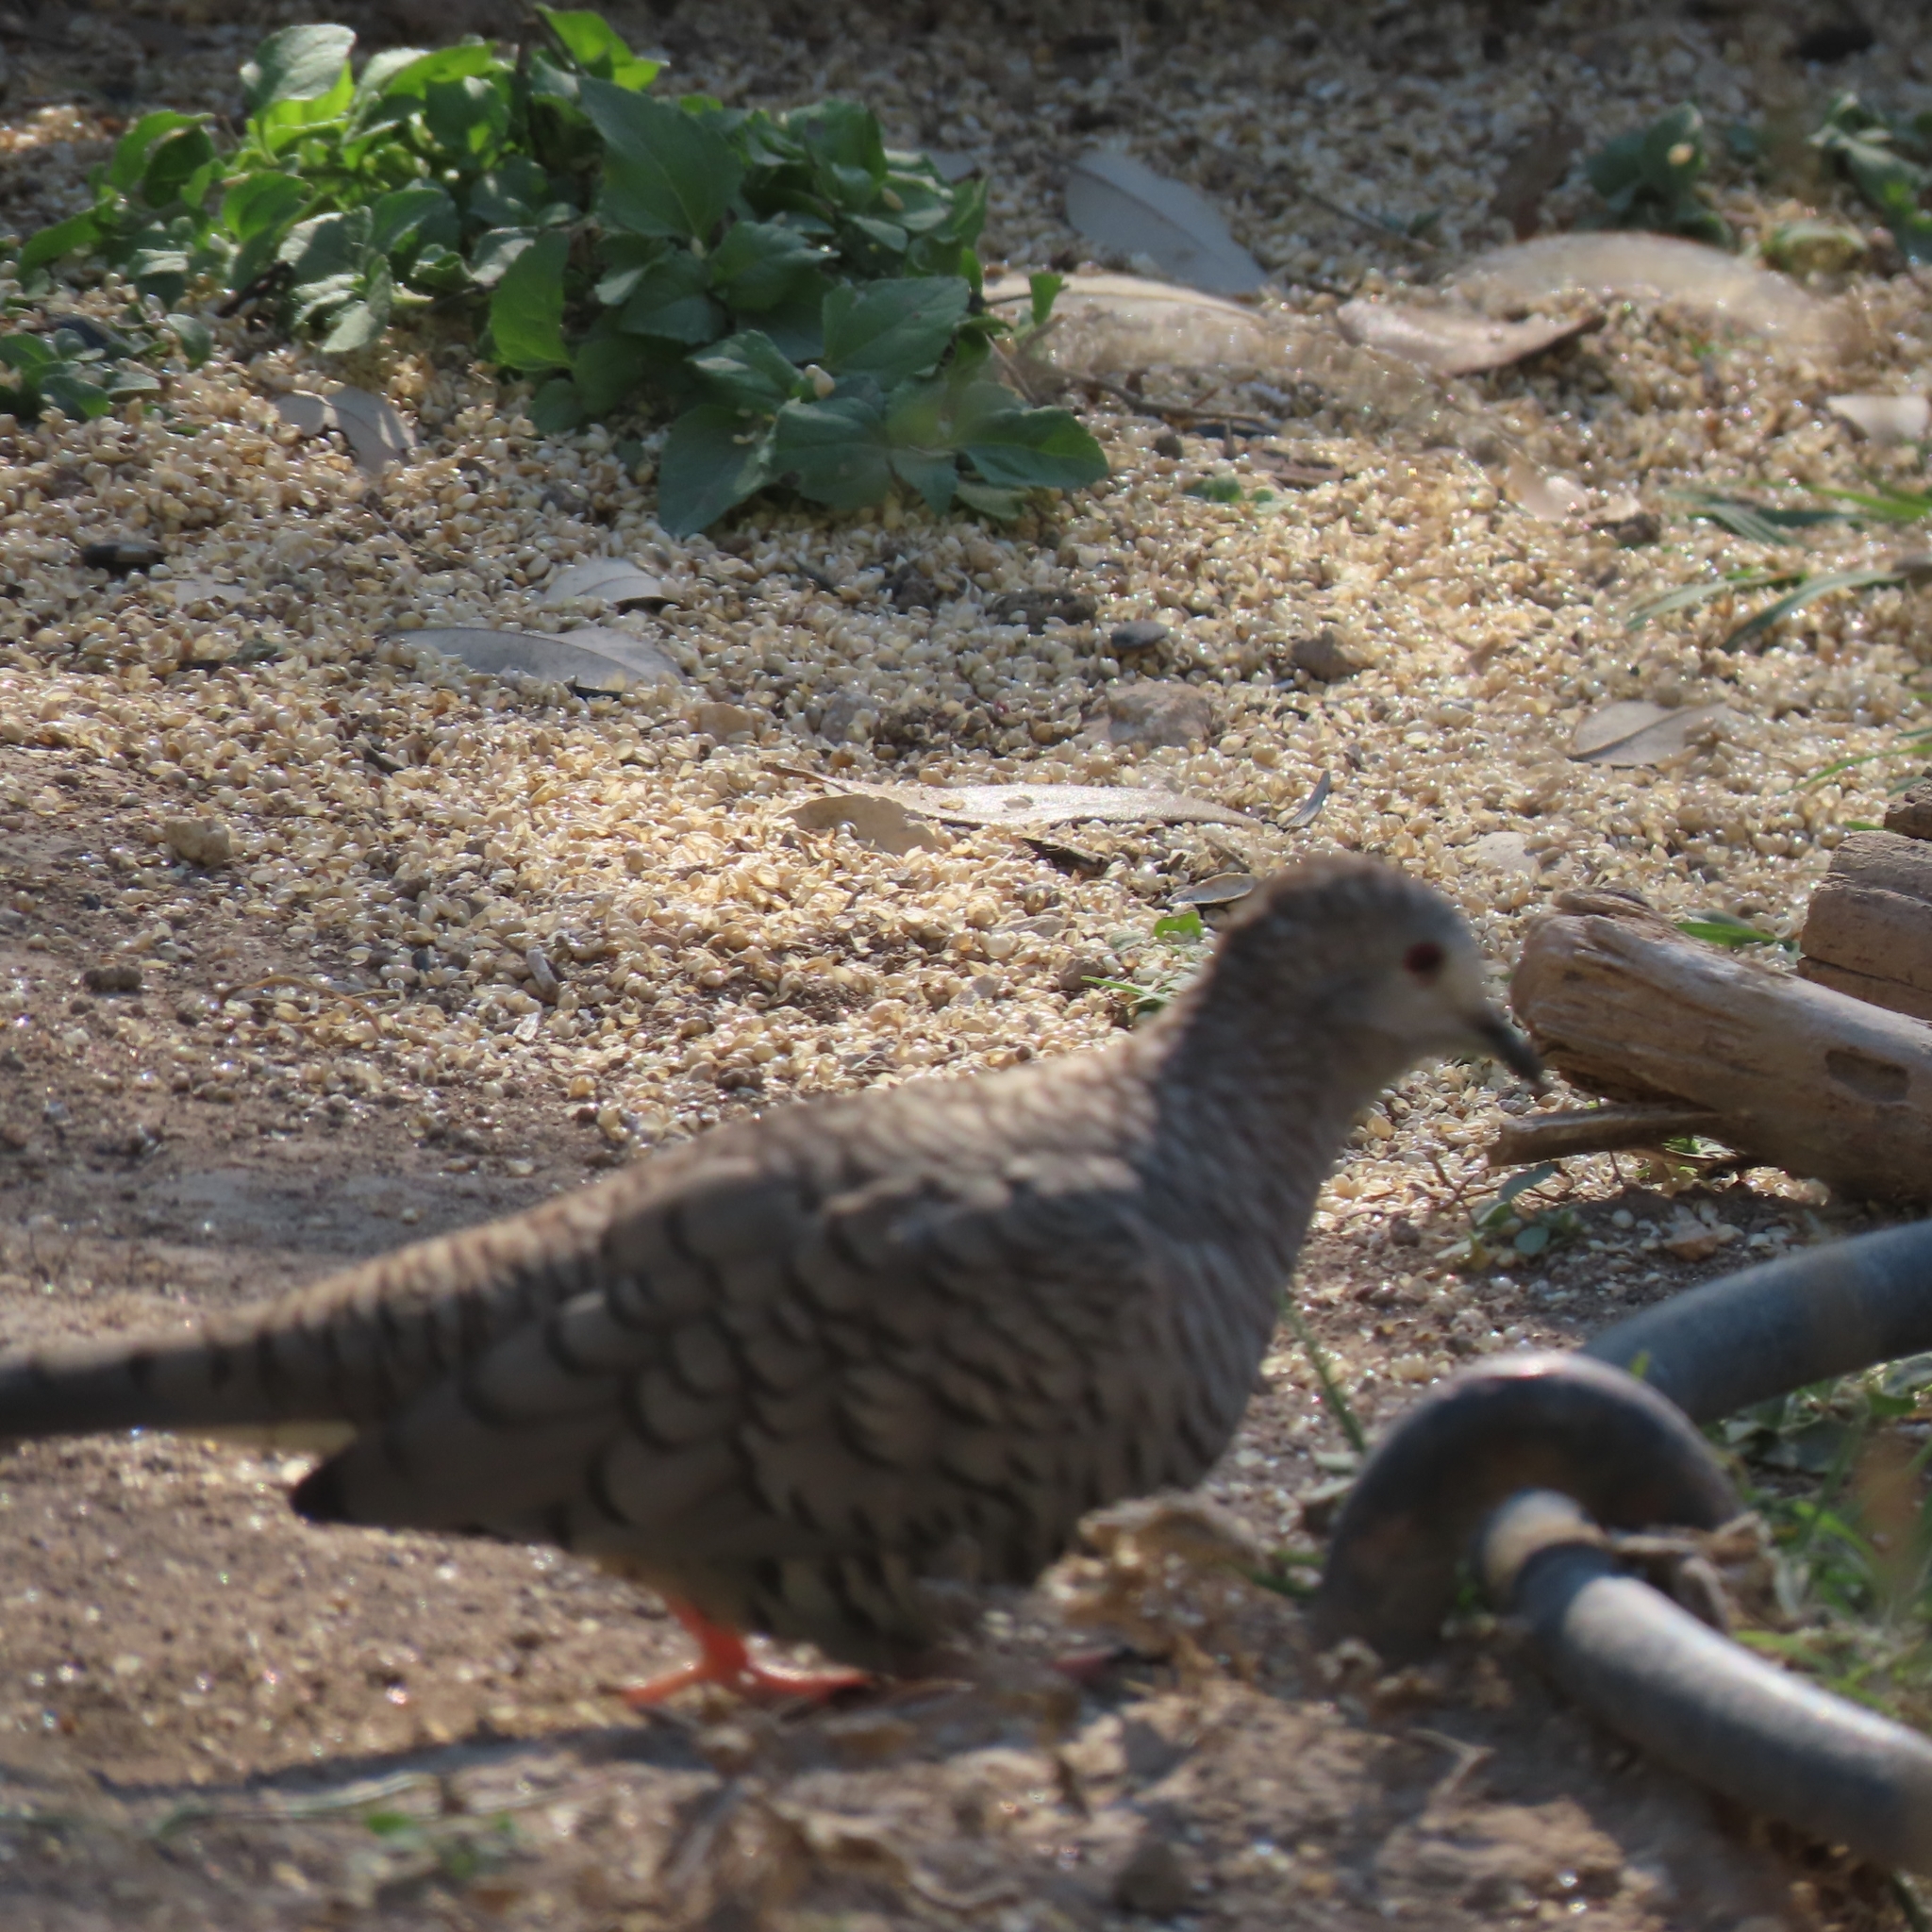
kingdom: Animalia
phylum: Chordata
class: Aves
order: Columbiformes
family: Columbidae
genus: Columbina
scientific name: Columbina inca
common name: Inca dove
